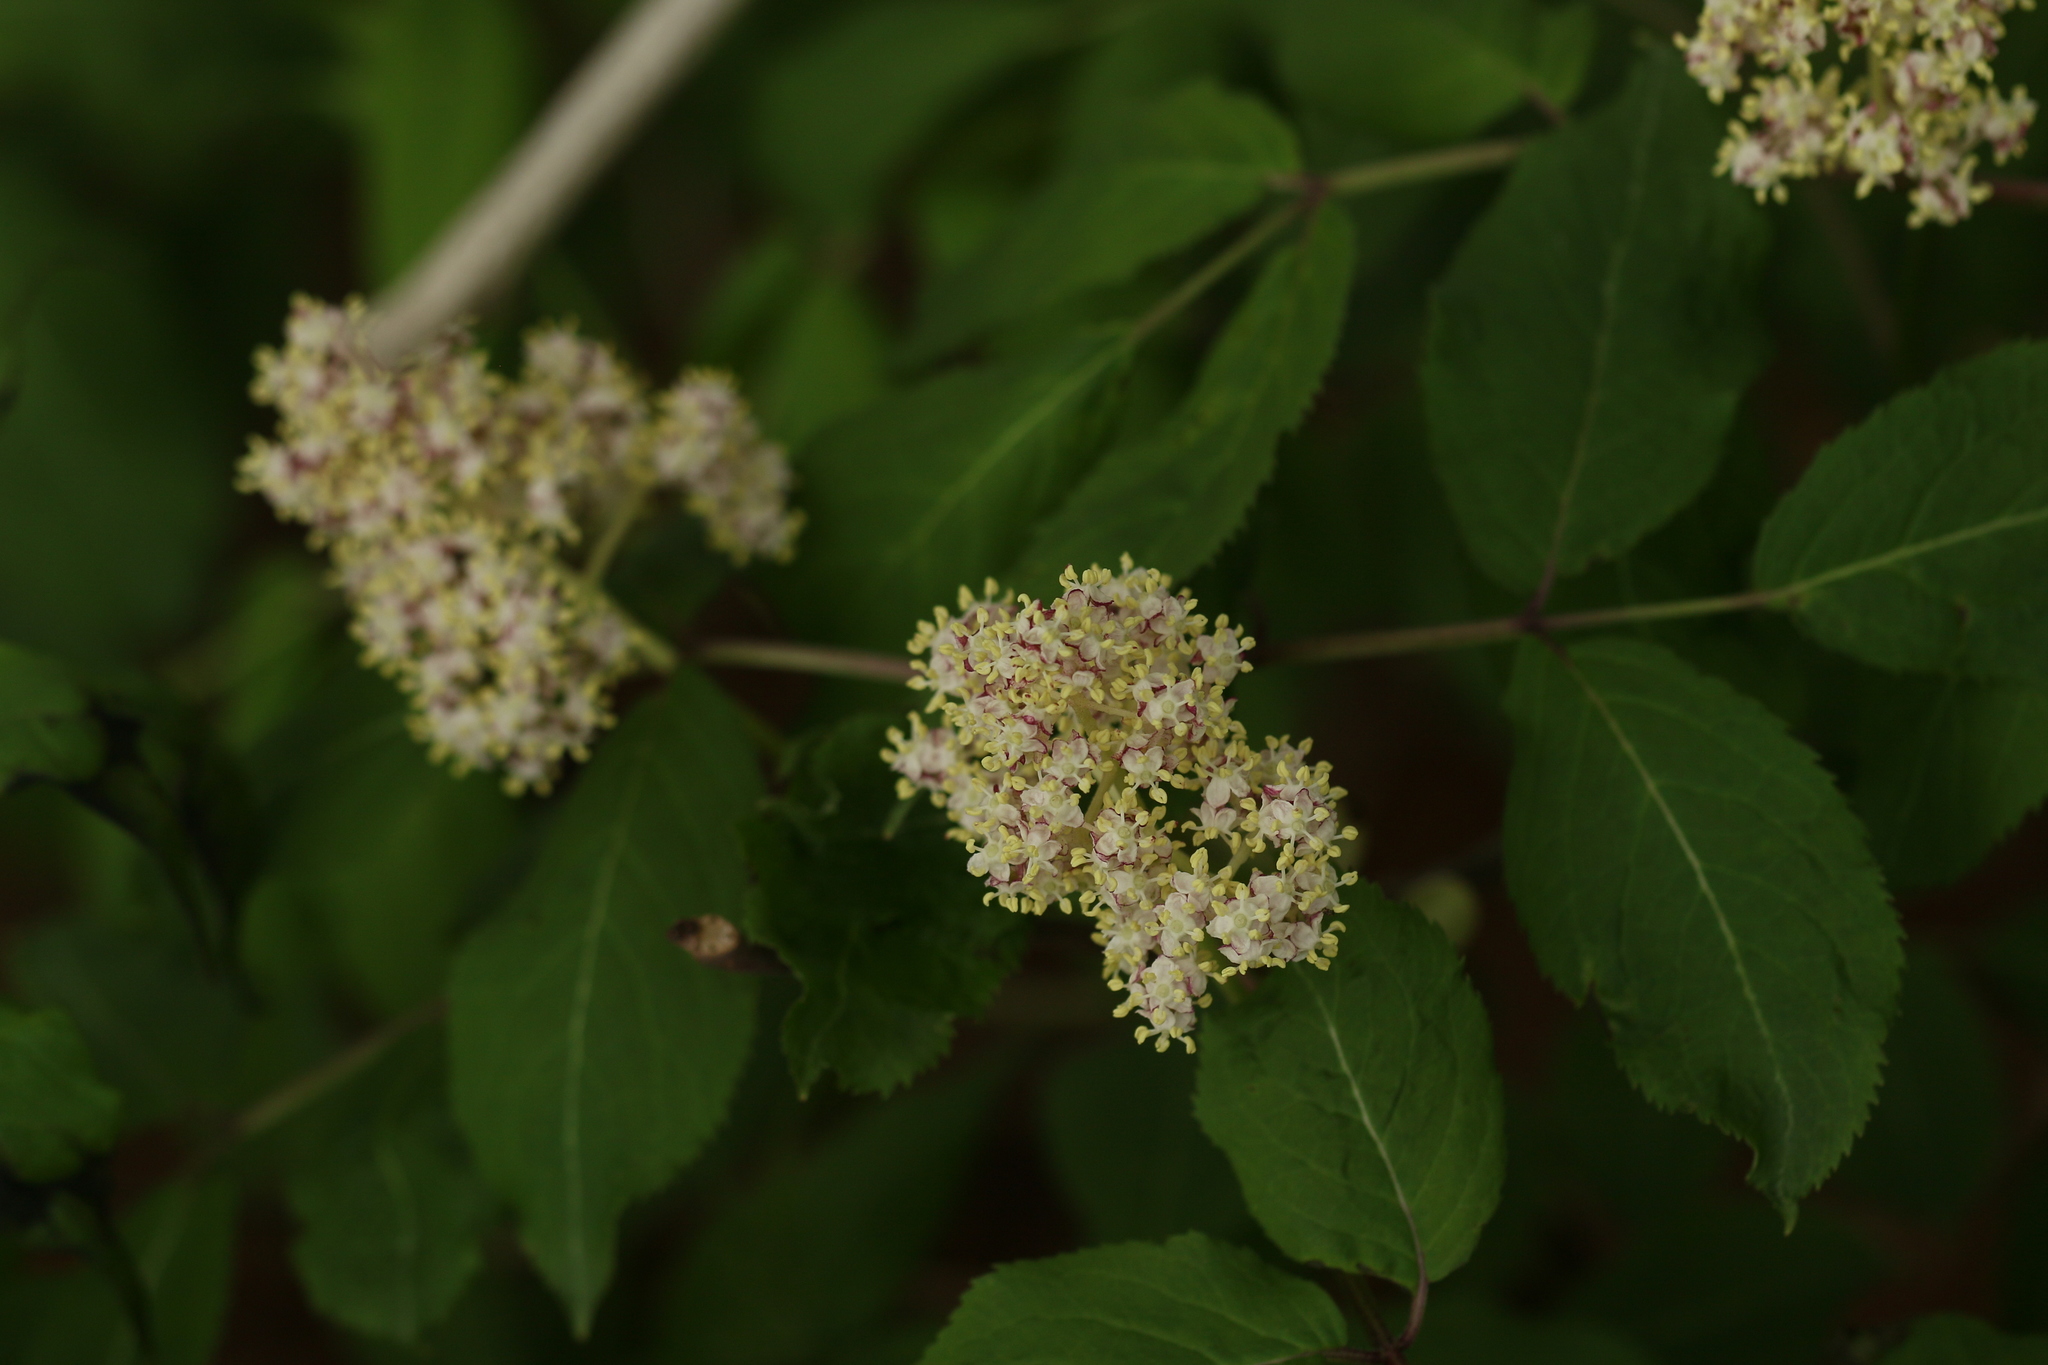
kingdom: Plantae
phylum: Tracheophyta
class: Magnoliopsida
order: Dipsacales
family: Viburnaceae
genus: Sambucus
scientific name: Sambucus racemosa
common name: Red-berried elder
